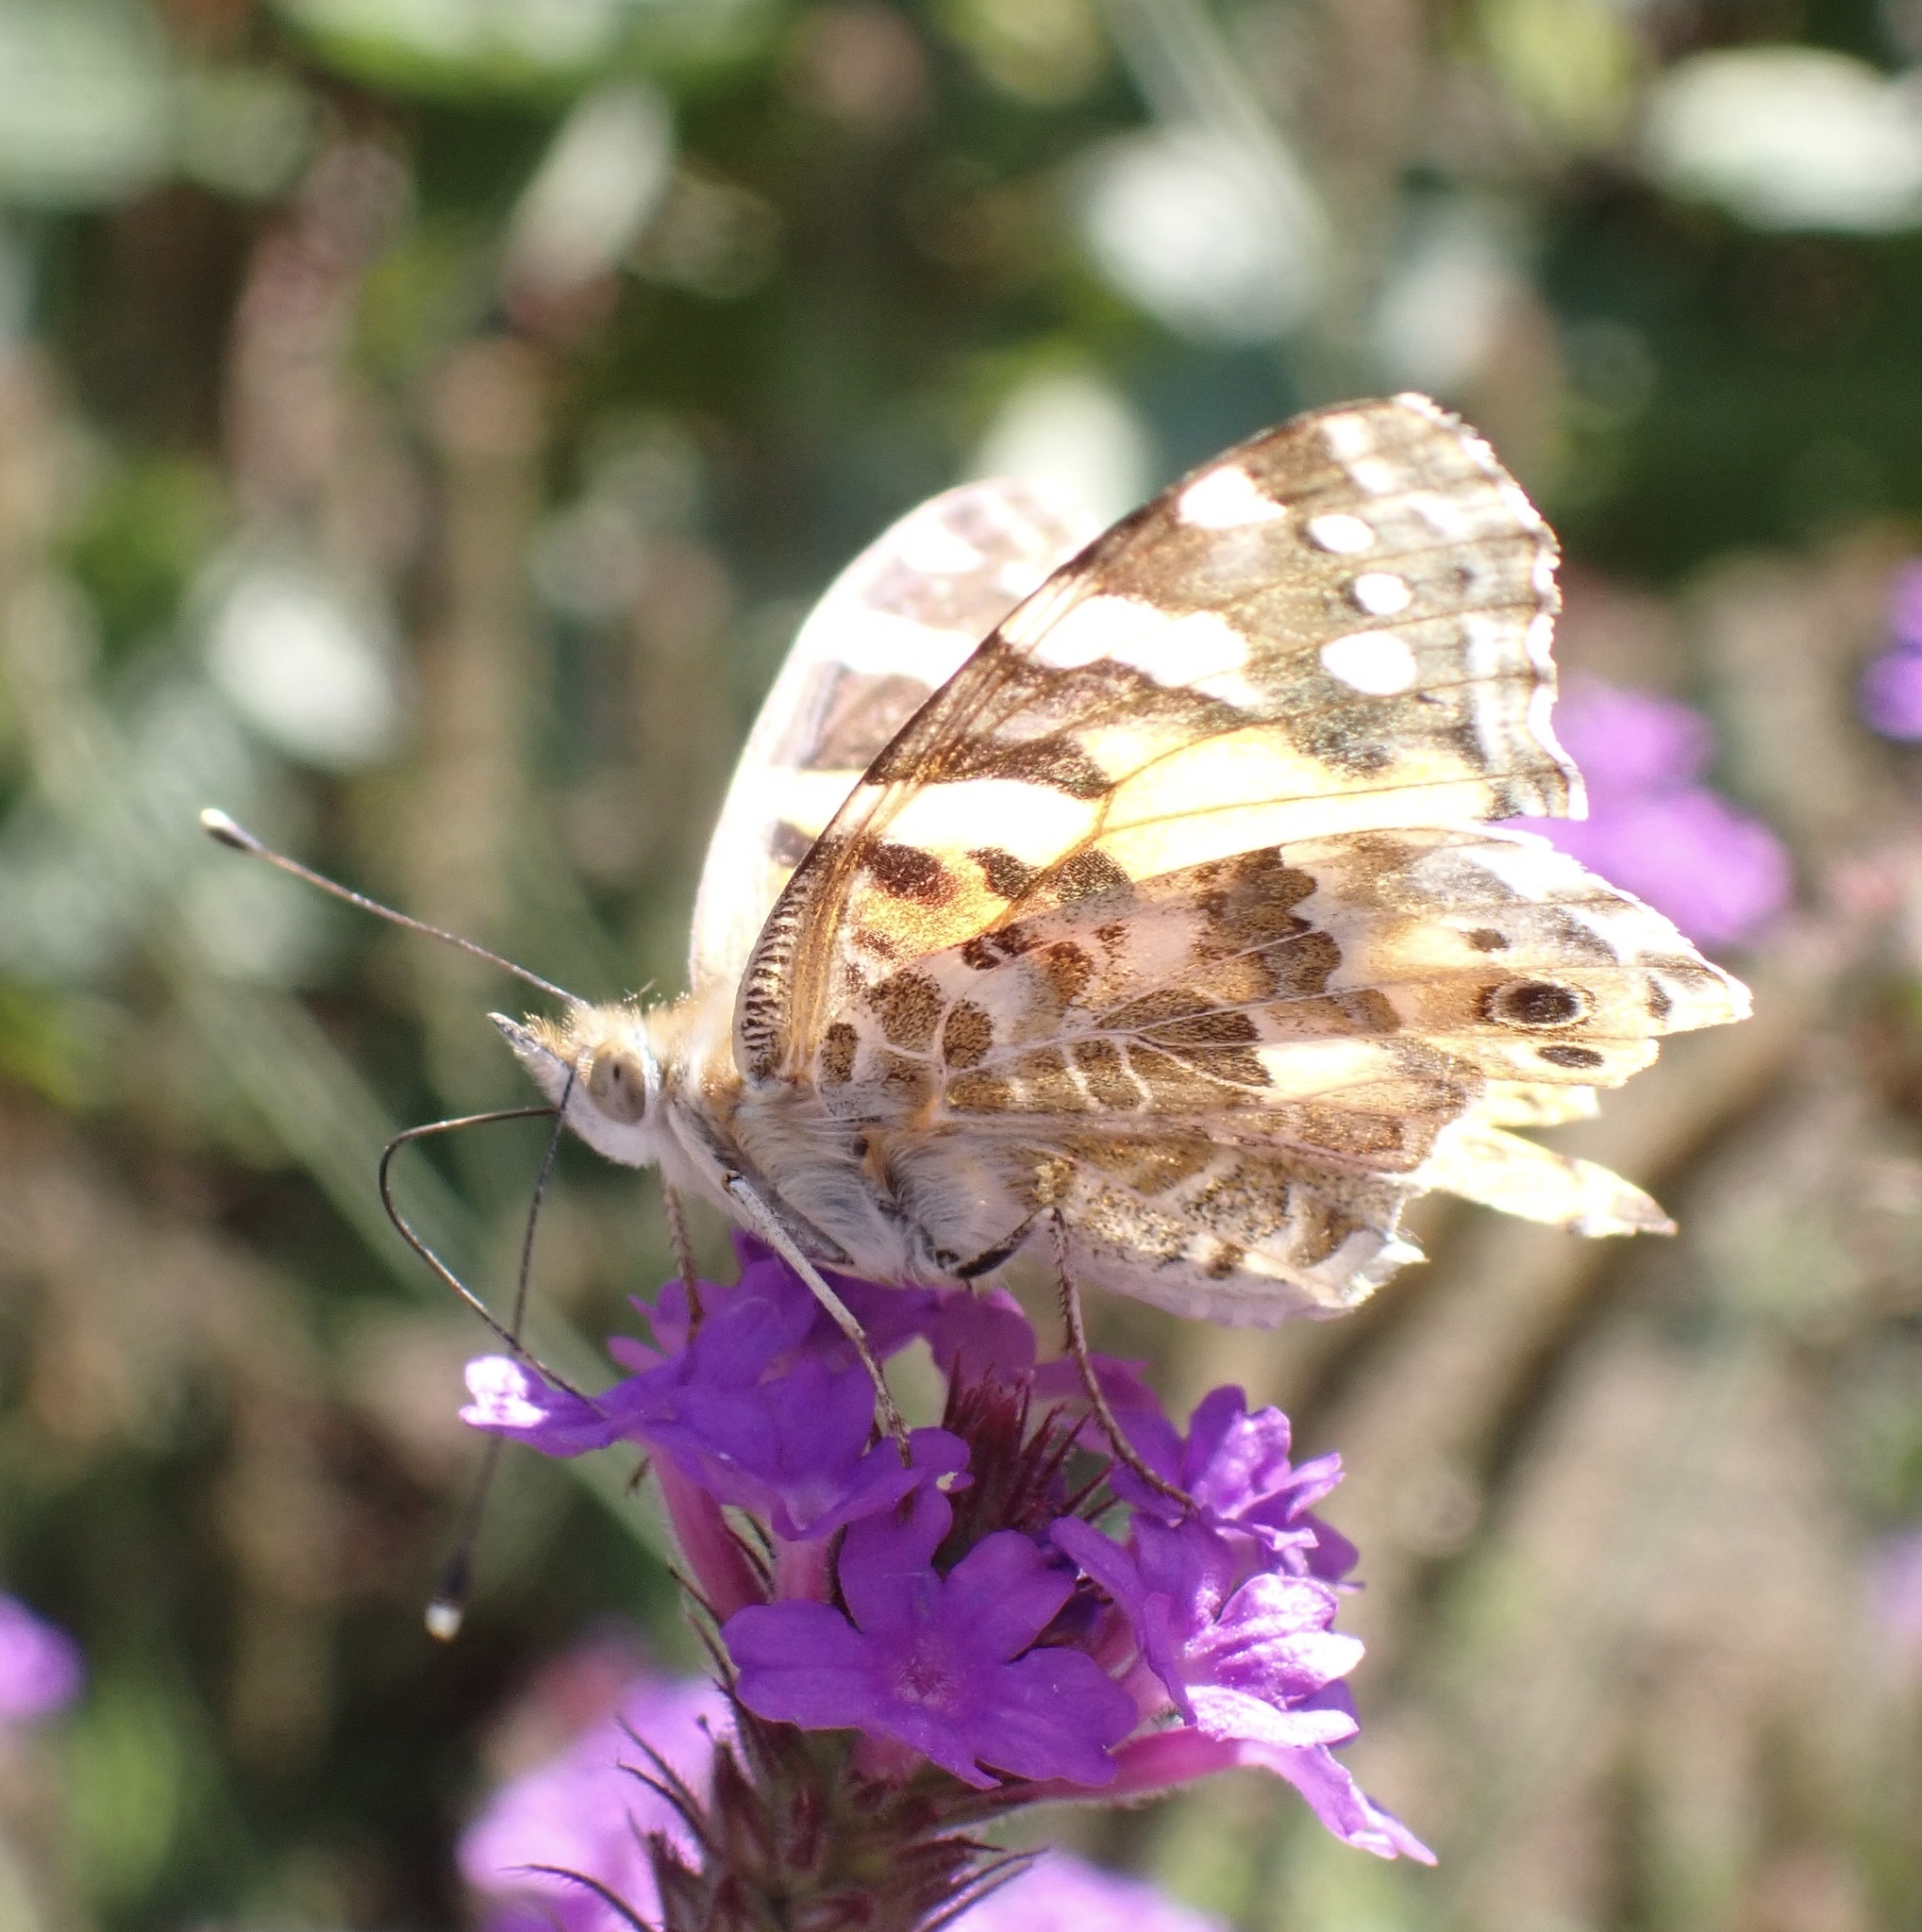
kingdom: Animalia
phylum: Arthropoda
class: Insecta
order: Lepidoptera
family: Nymphalidae
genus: Vanessa
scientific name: Vanessa cardui
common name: Painted lady
